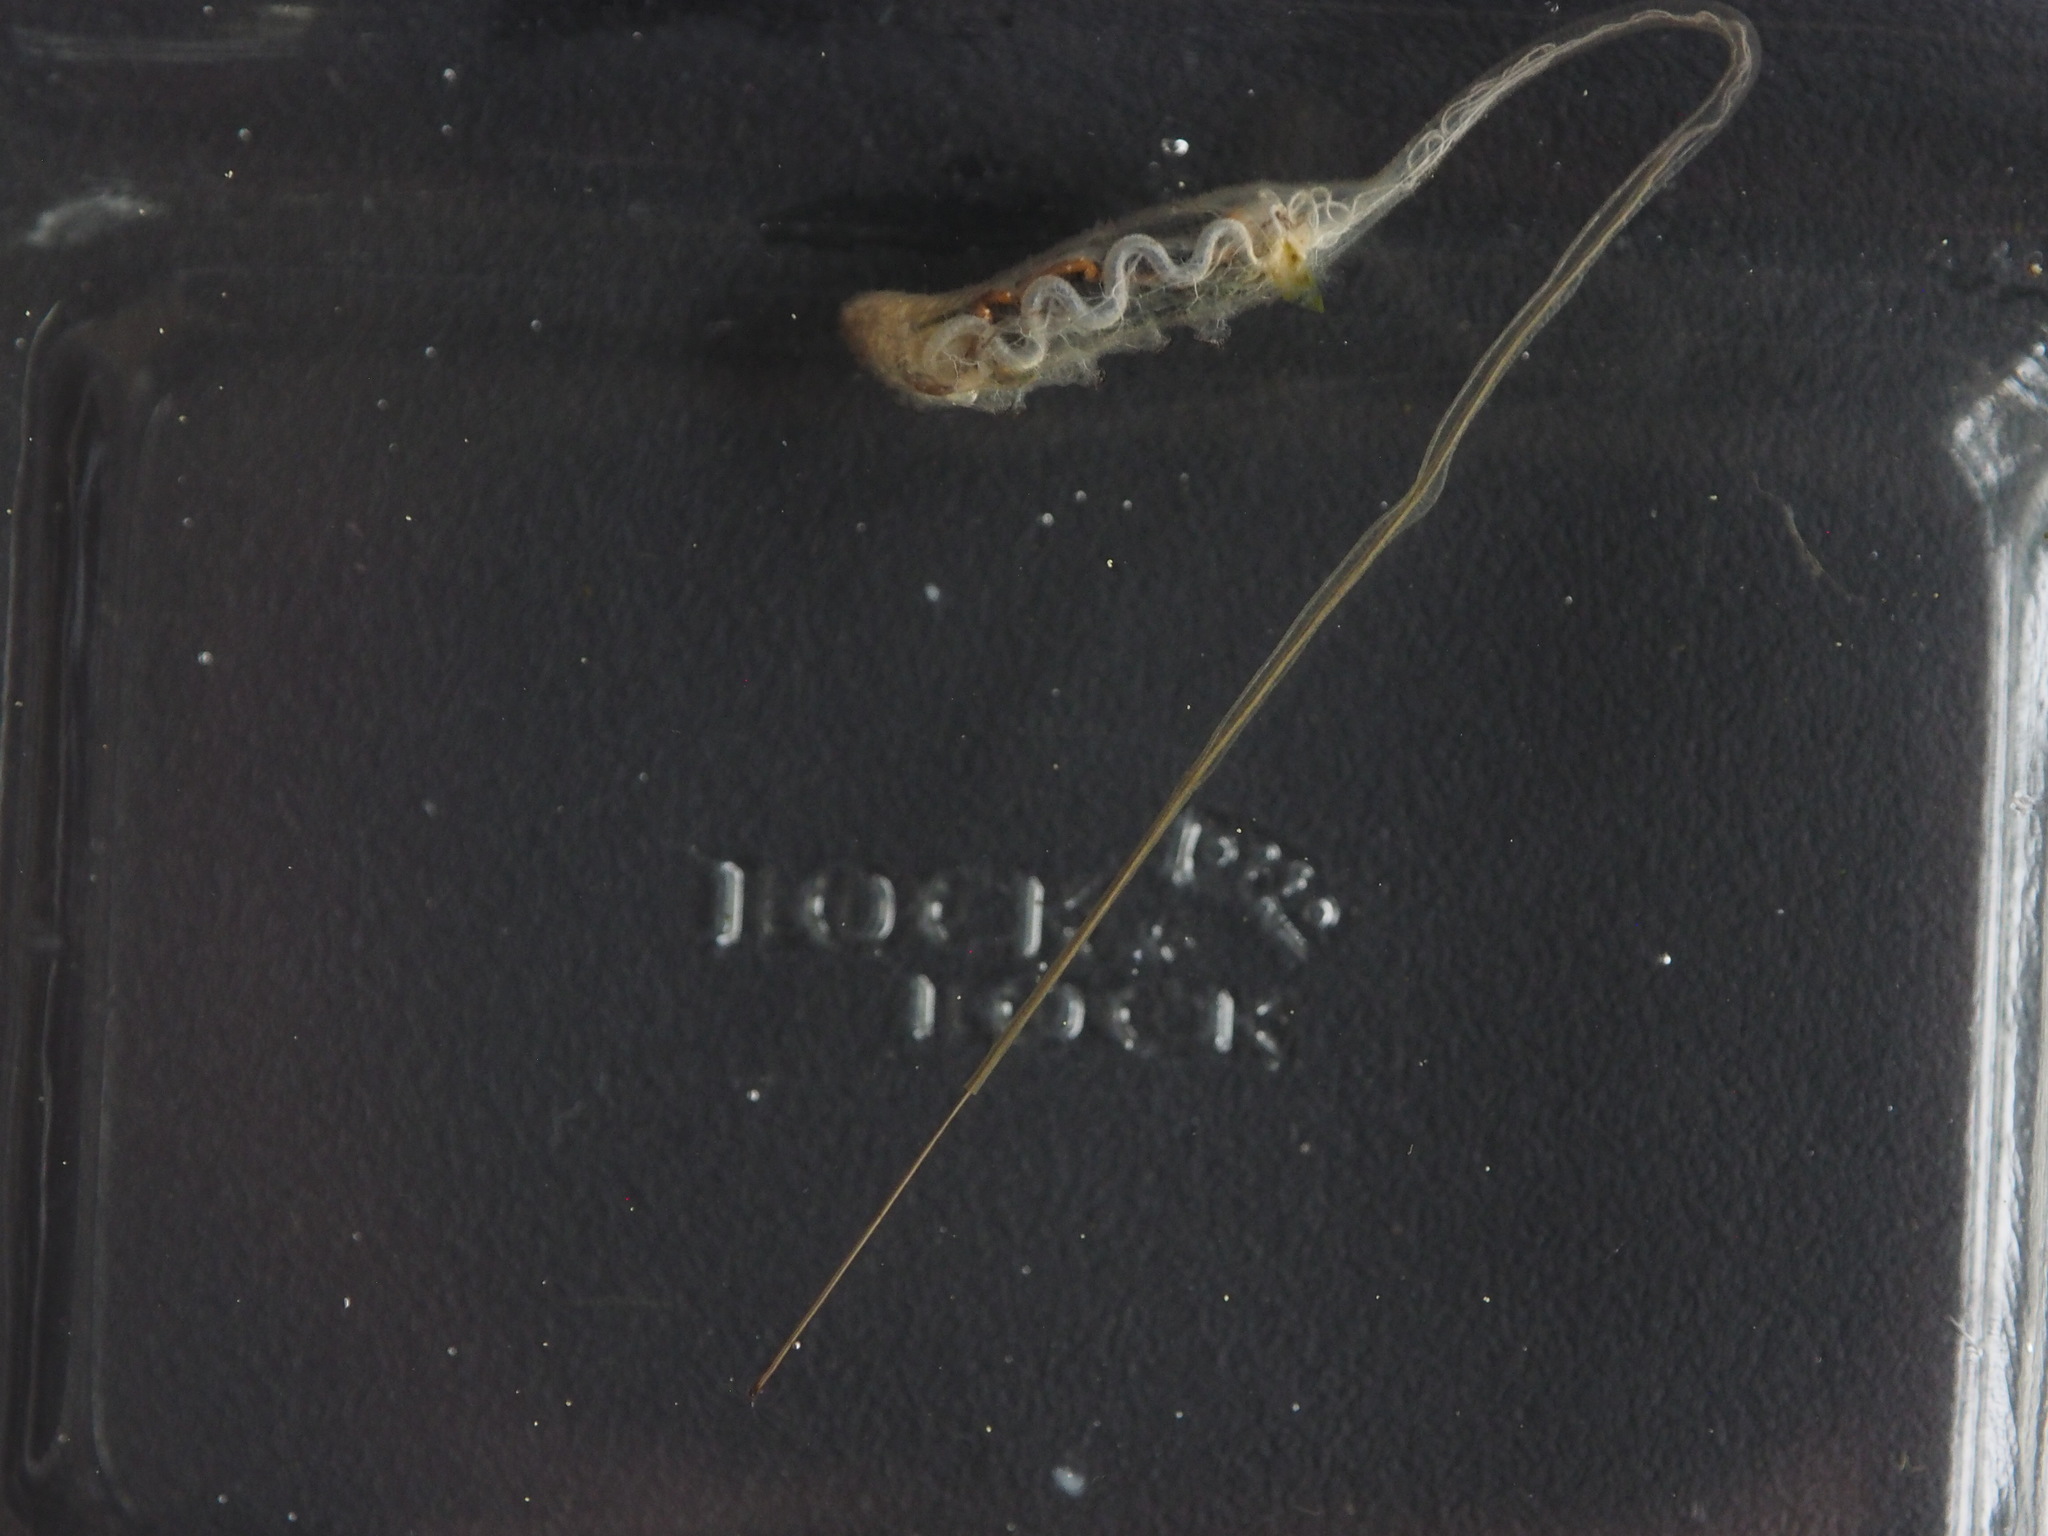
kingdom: Animalia
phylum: Arthropoda
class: Insecta
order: Diptera
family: Syrphidae
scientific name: Syrphidae
